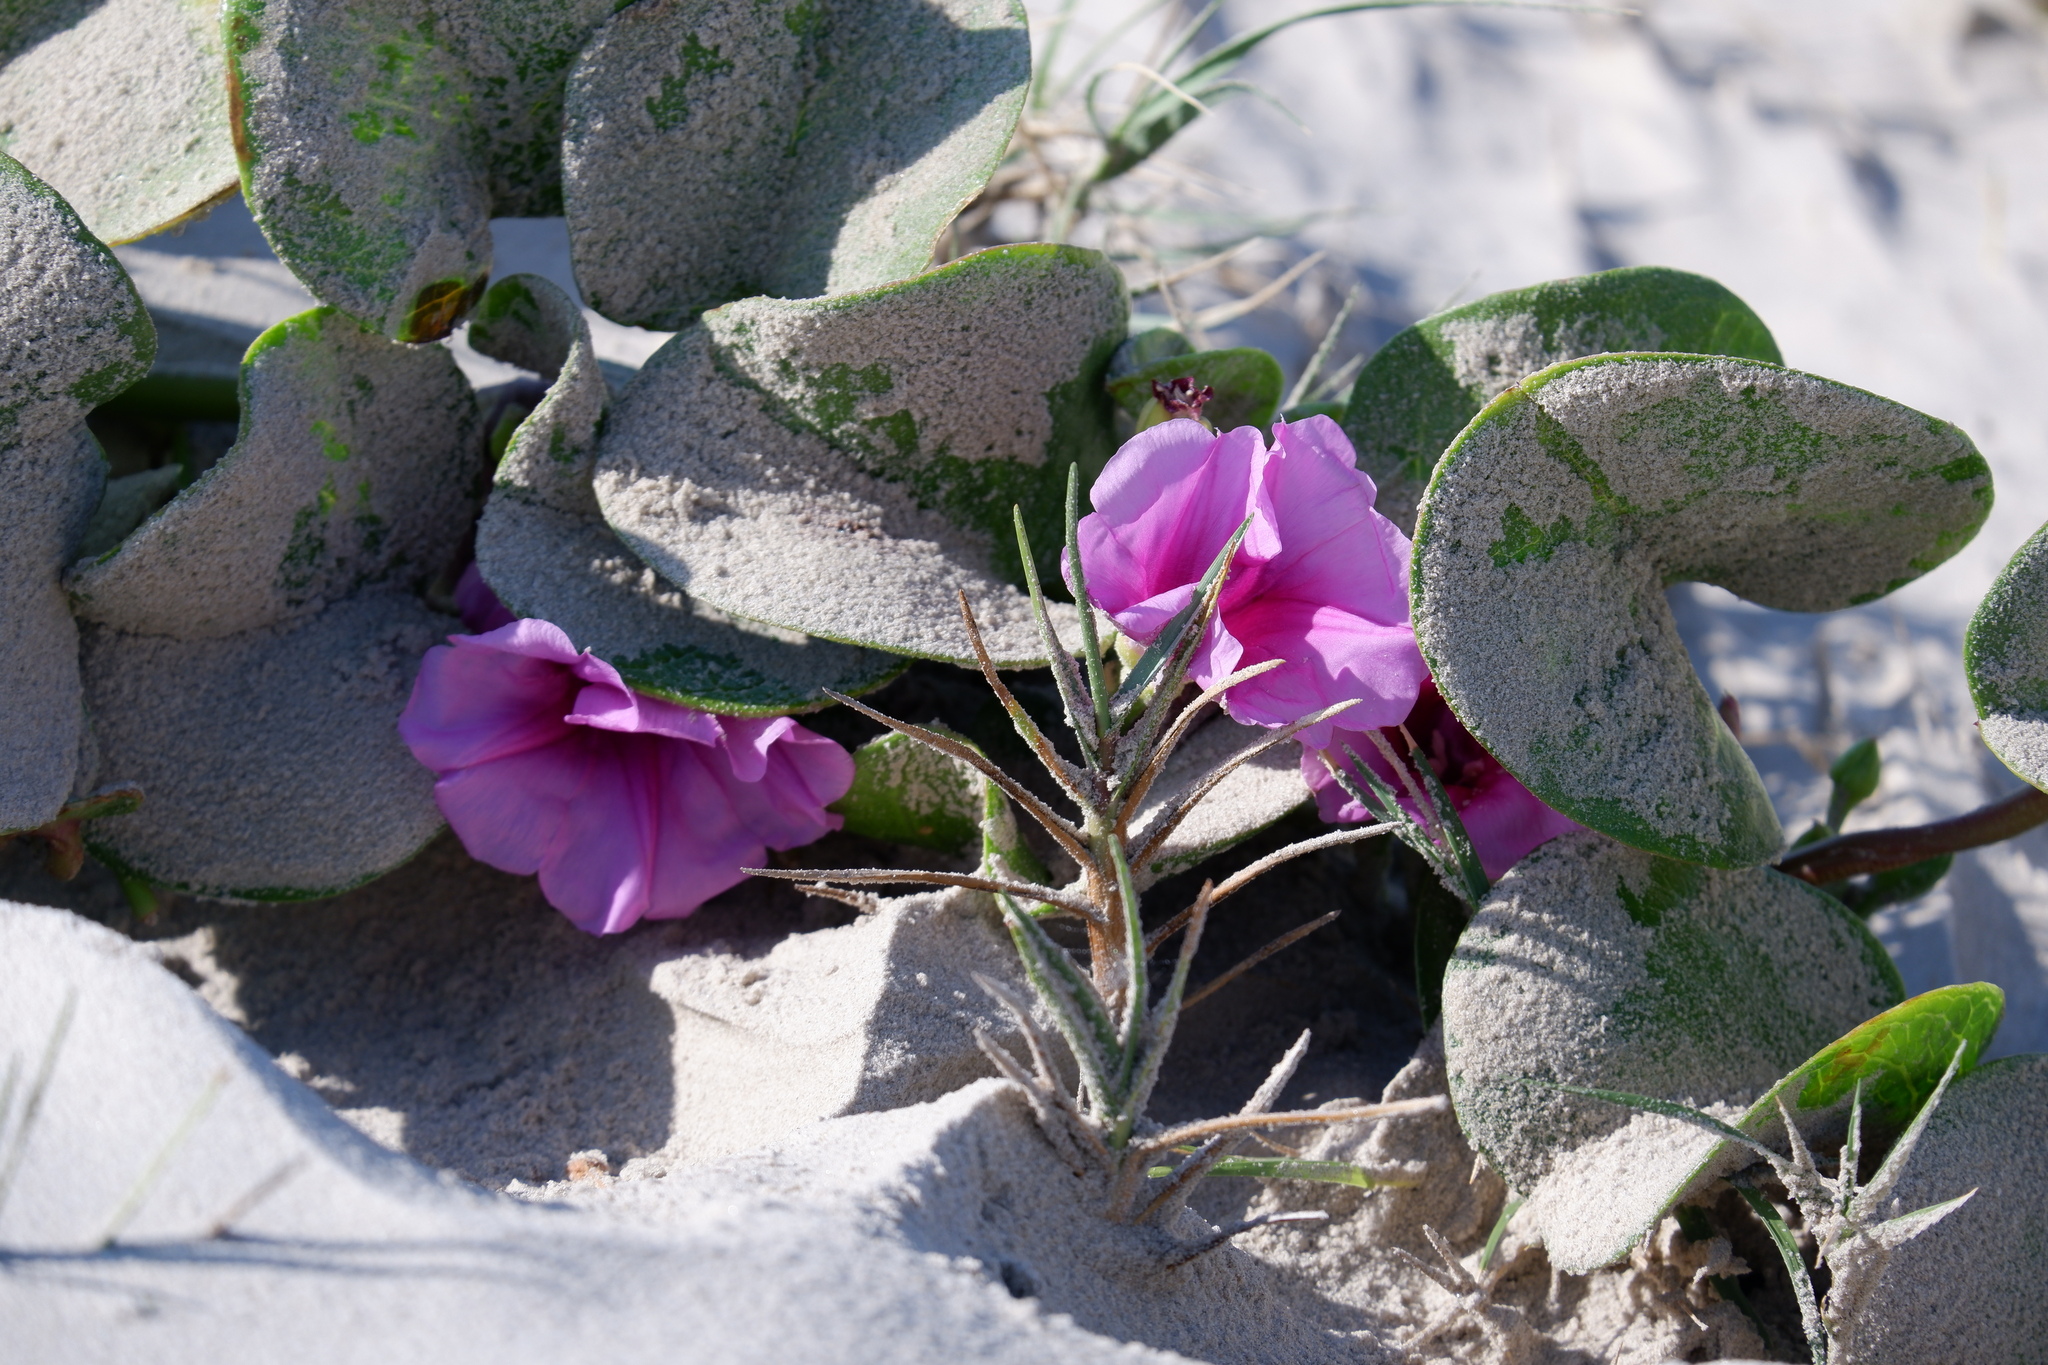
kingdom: Plantae
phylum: Tracheophyta
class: Magnoliopsida
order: Solanales
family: Convolvulaceae
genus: Ipomoea
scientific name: Ipomoea pes-caprae
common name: Beach morning glory
